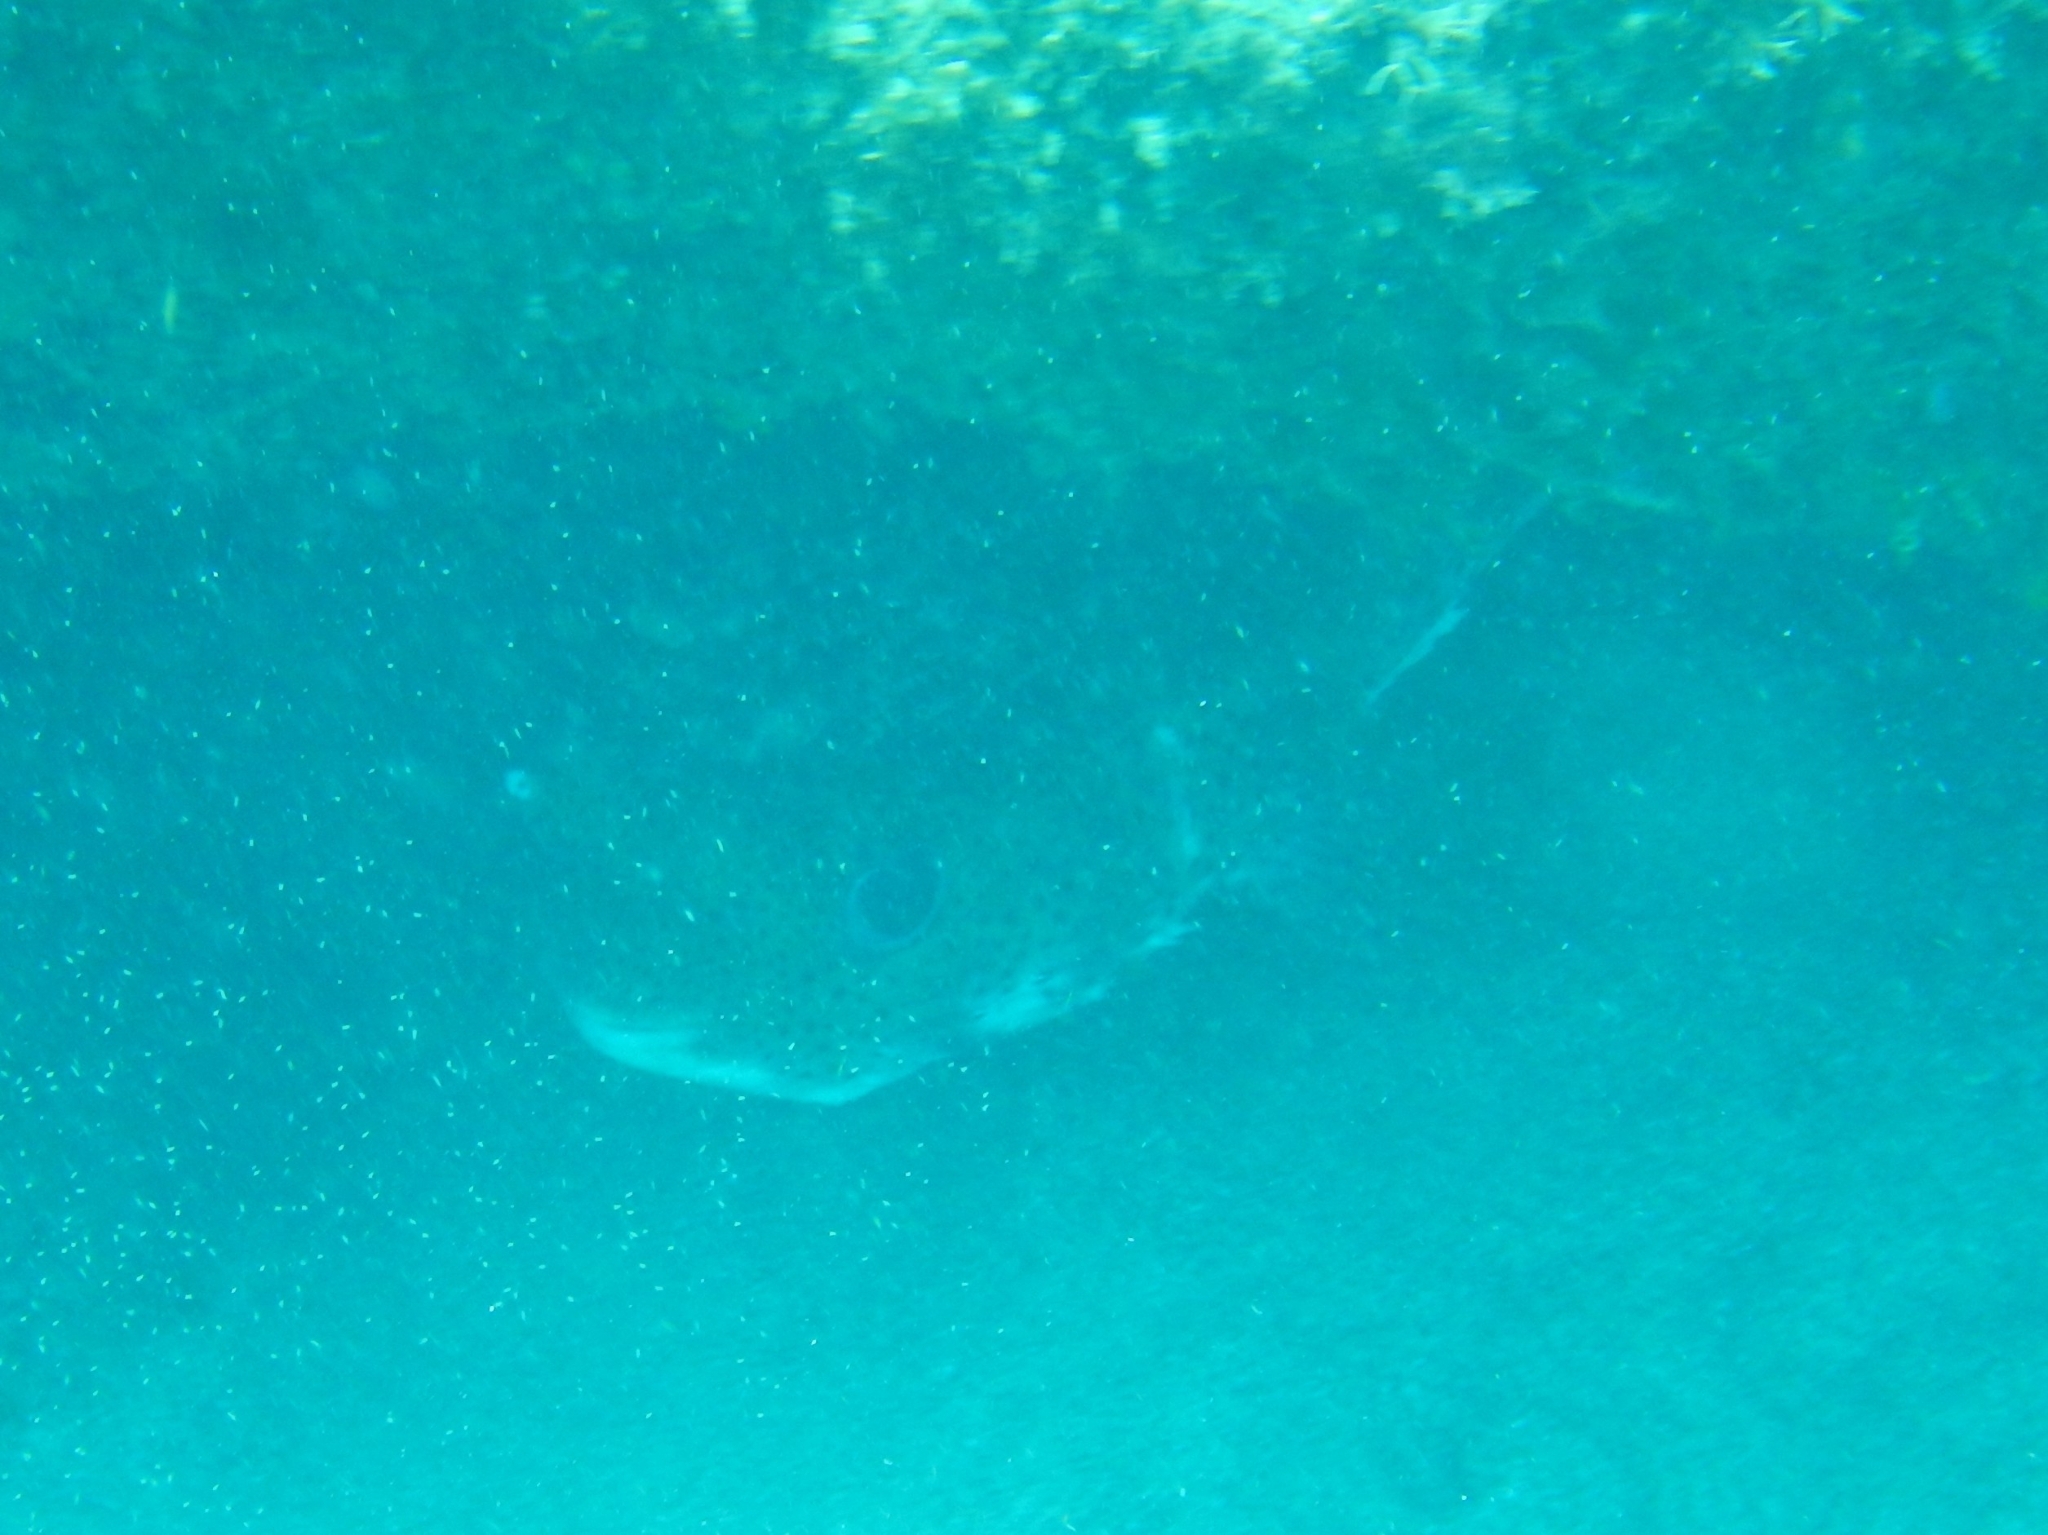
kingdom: Animalia
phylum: Chordata
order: Tetraodontiformes
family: Diodontidae
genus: Diodon
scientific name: Diodon hystrix
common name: Giant porcupinefish
